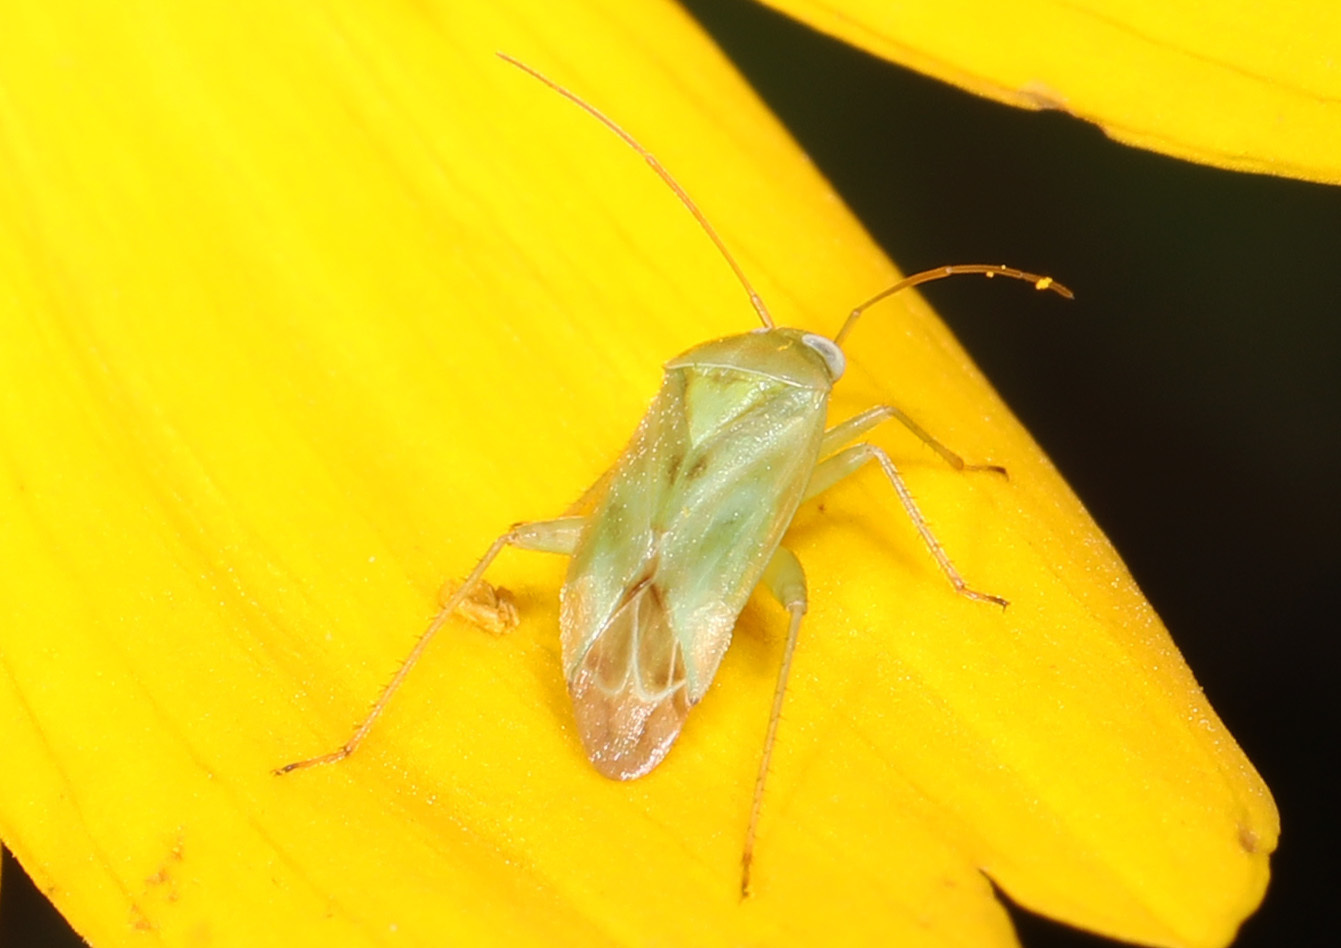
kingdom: Animalia
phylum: Arthropoda
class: Insecta
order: Hemiptera
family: Miridae
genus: Taylorilygus
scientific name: Taylorilygus apicalis
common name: Plant bug
